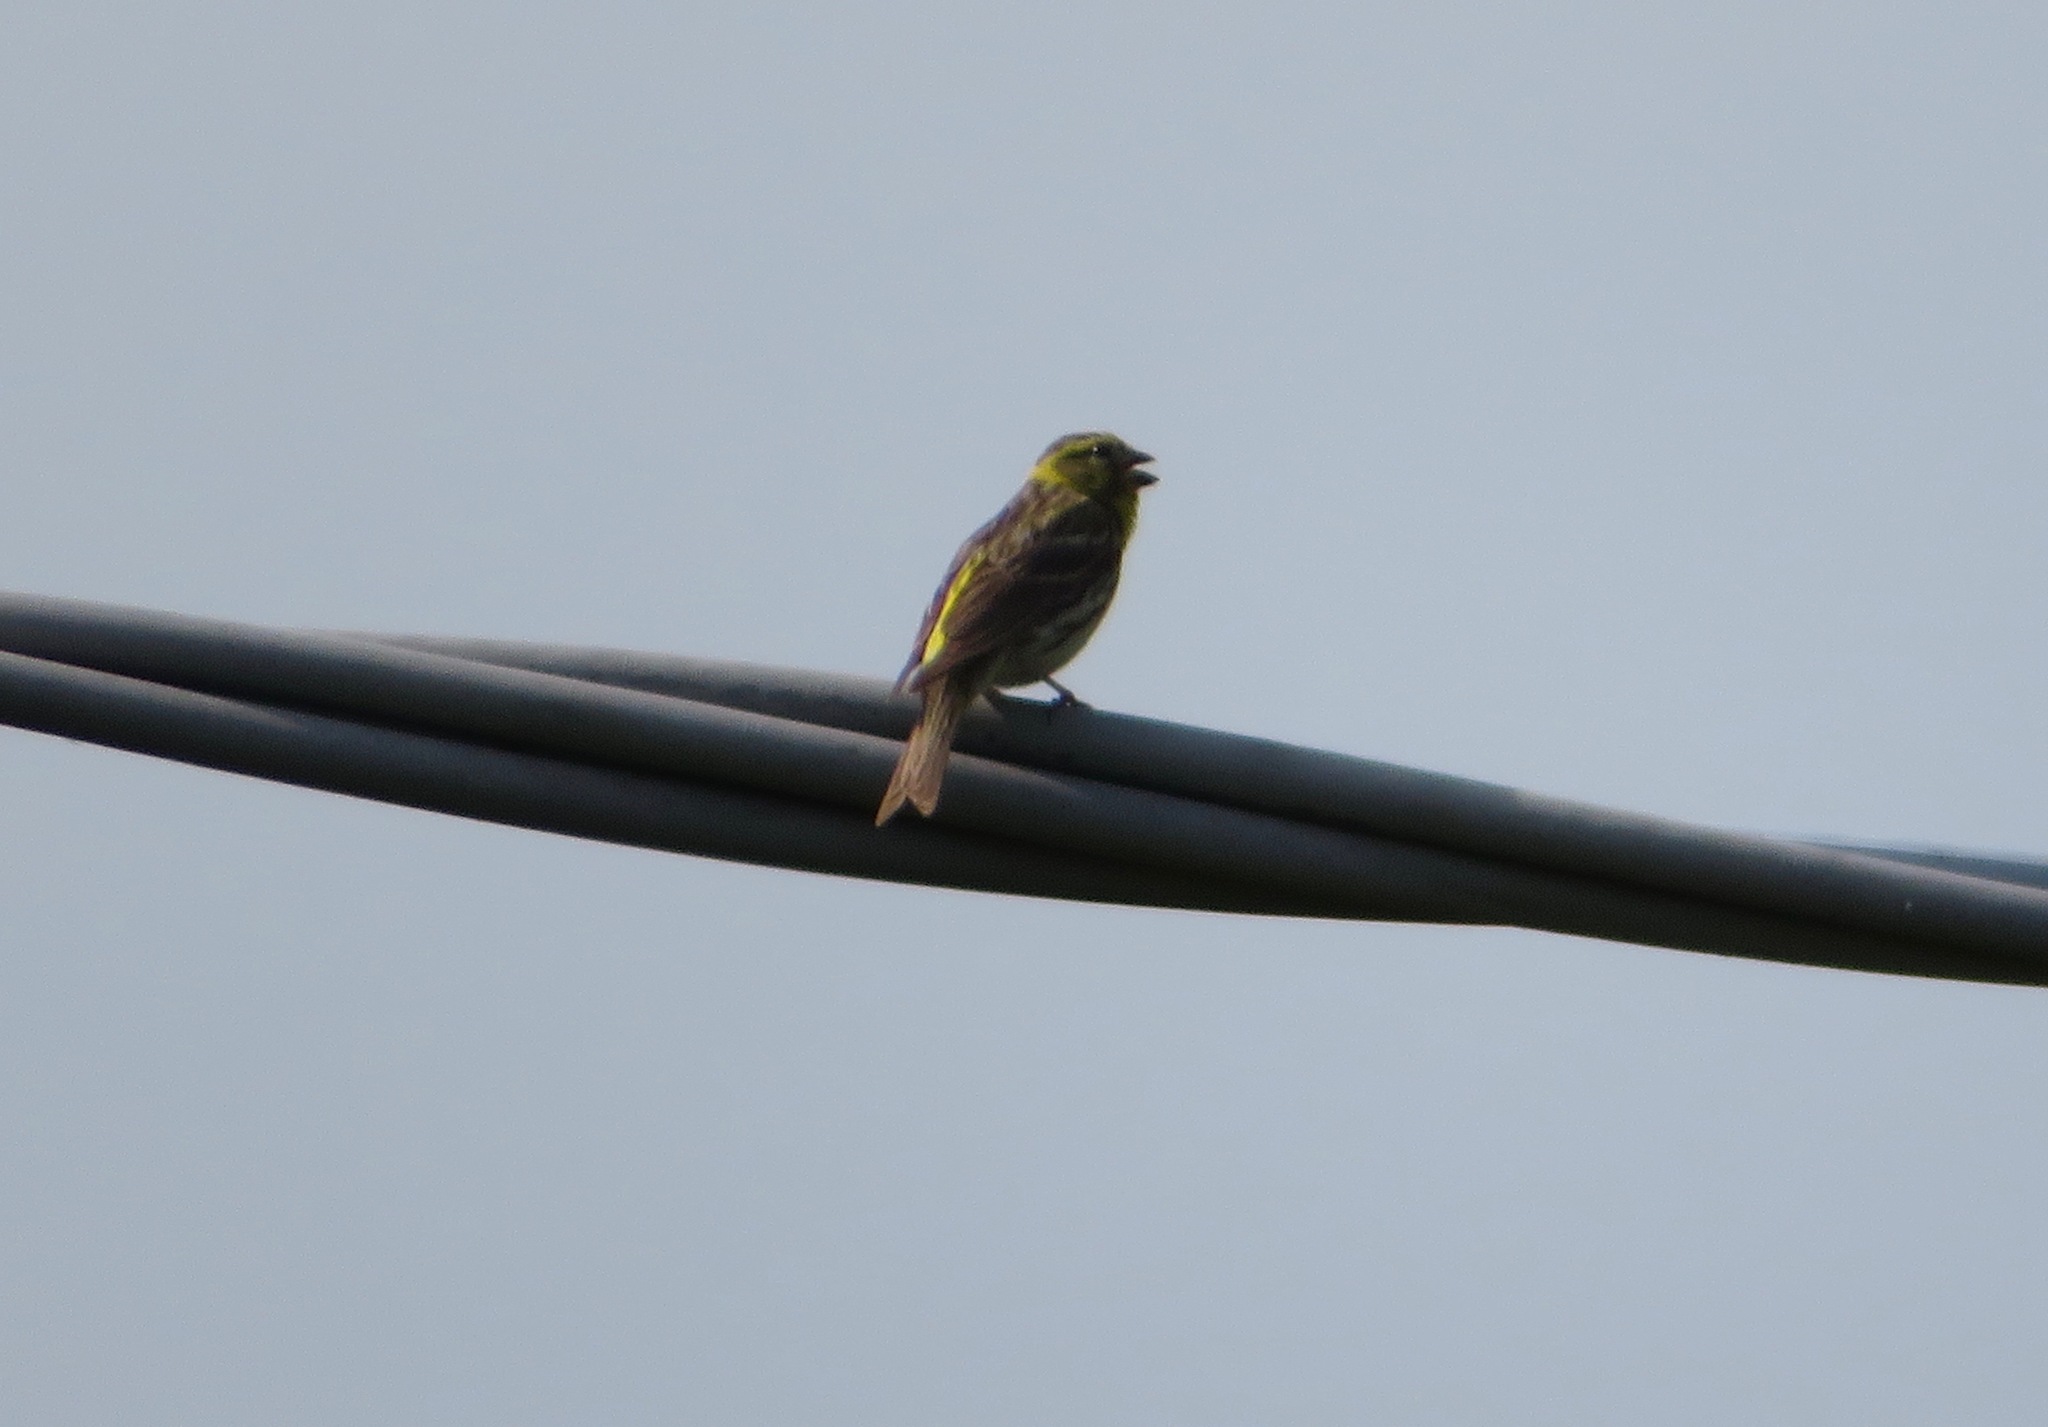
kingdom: Animalia
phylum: Chordata
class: Aves
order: Passeriformes
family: Fringillidae
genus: Serinus
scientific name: Serinus serinus
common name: European serin
